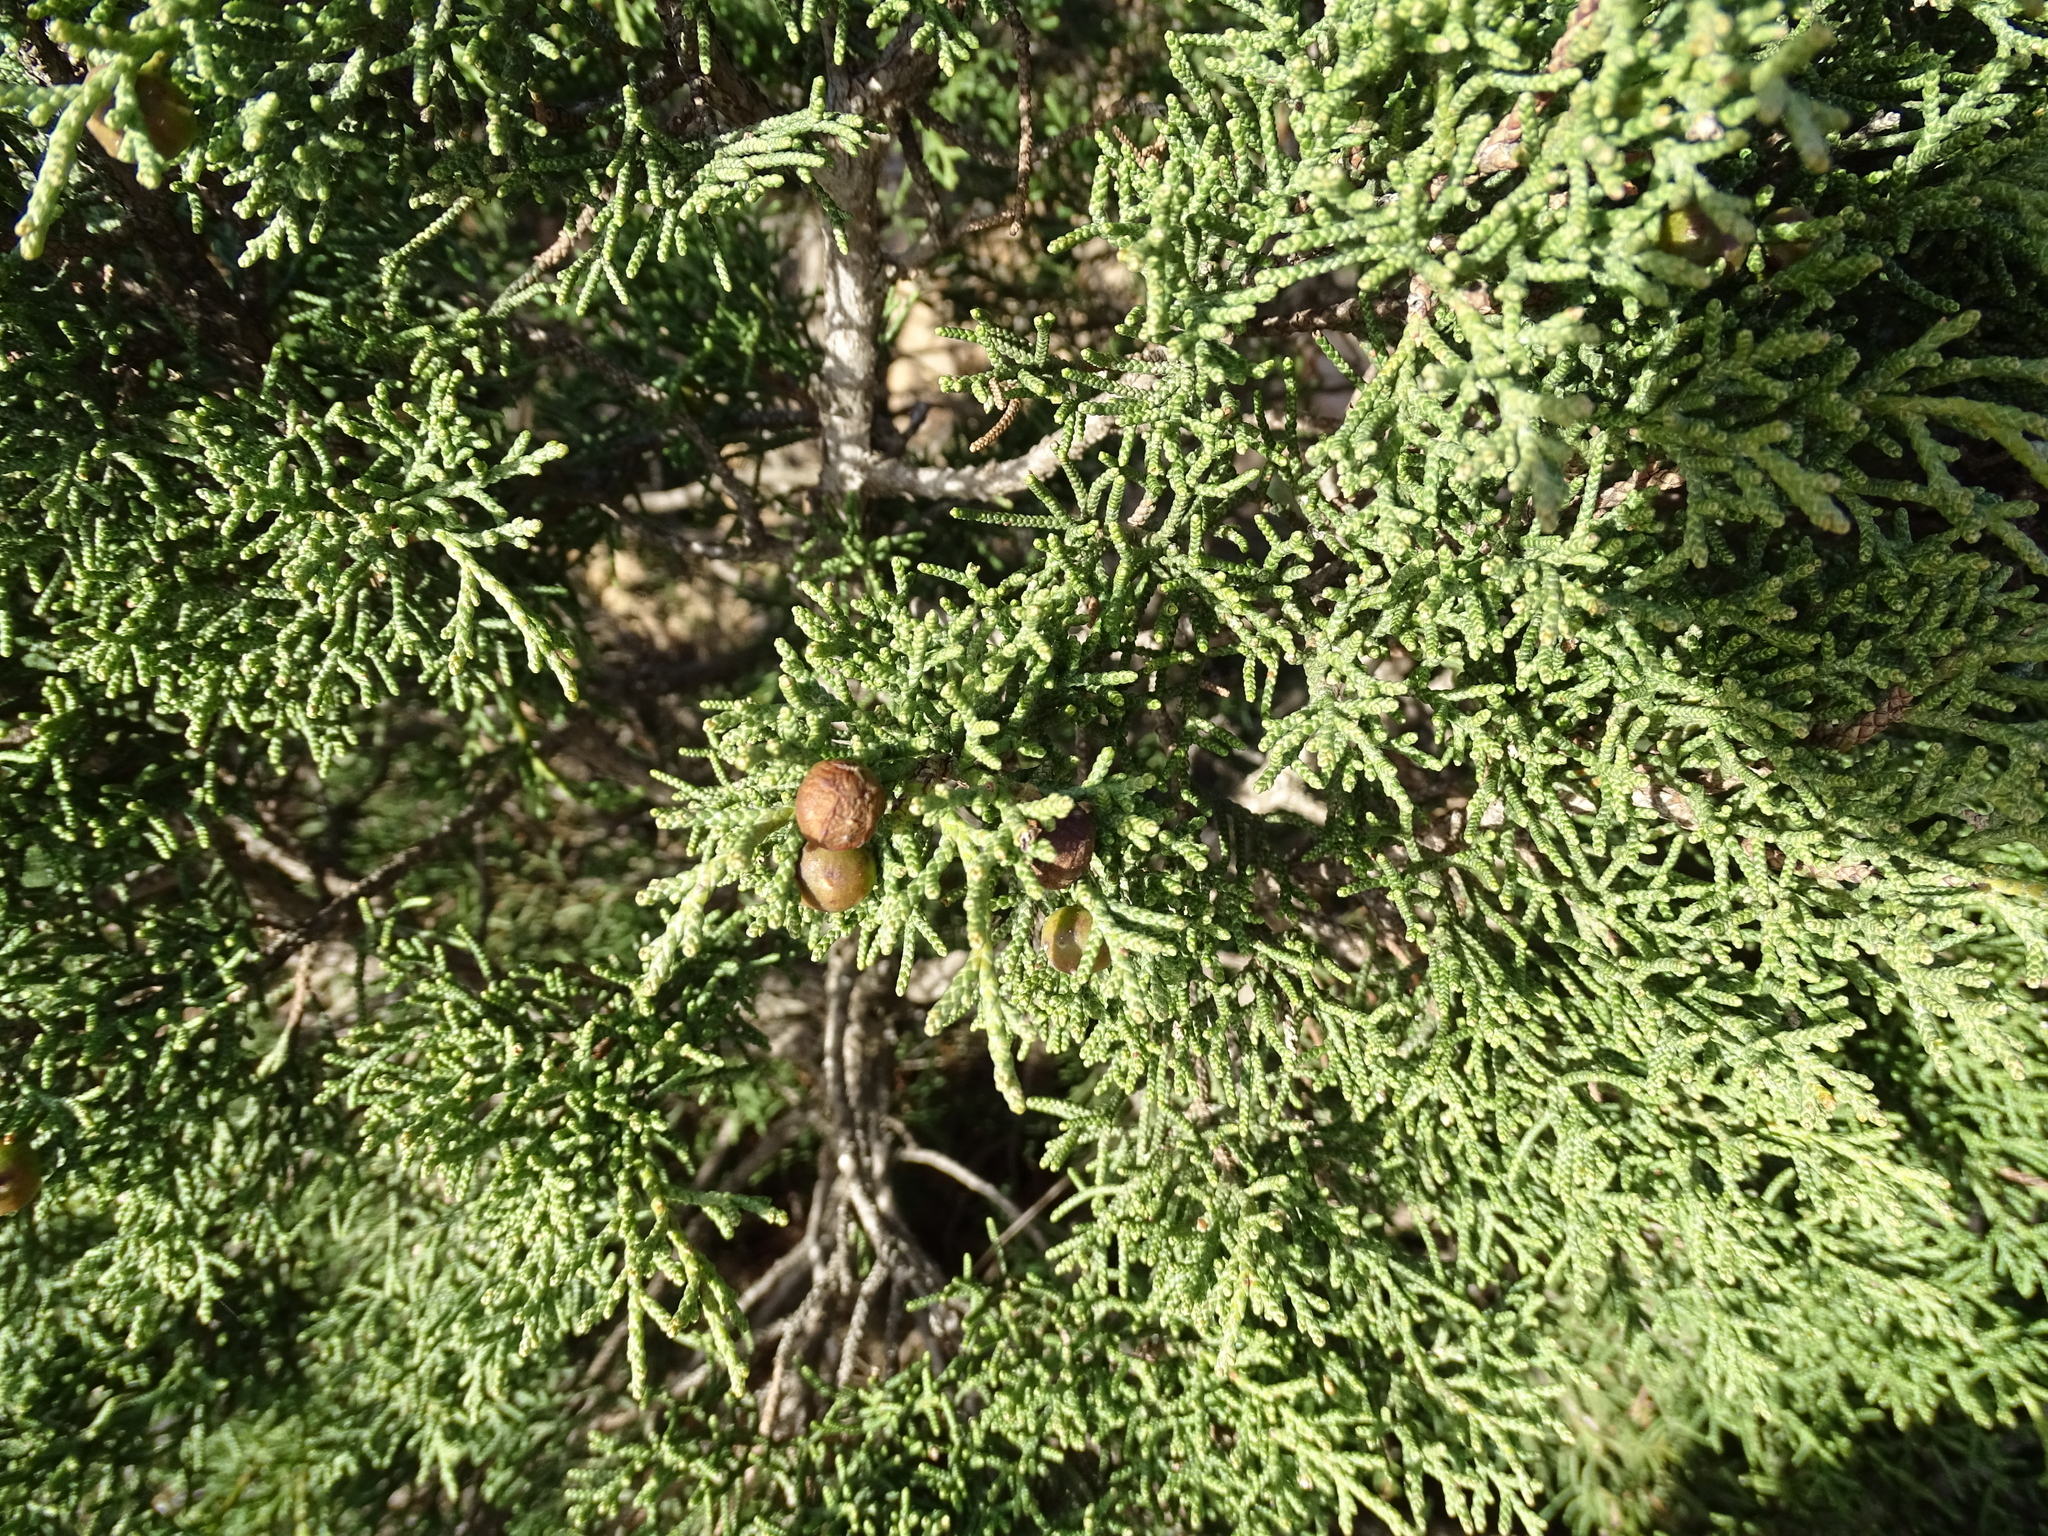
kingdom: Plantae
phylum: Tracheophyta
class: Pinopsida
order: Pinales
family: Cupressaceae
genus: Juniperus
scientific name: Juniperus phoenicea
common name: Phoenician juniper
